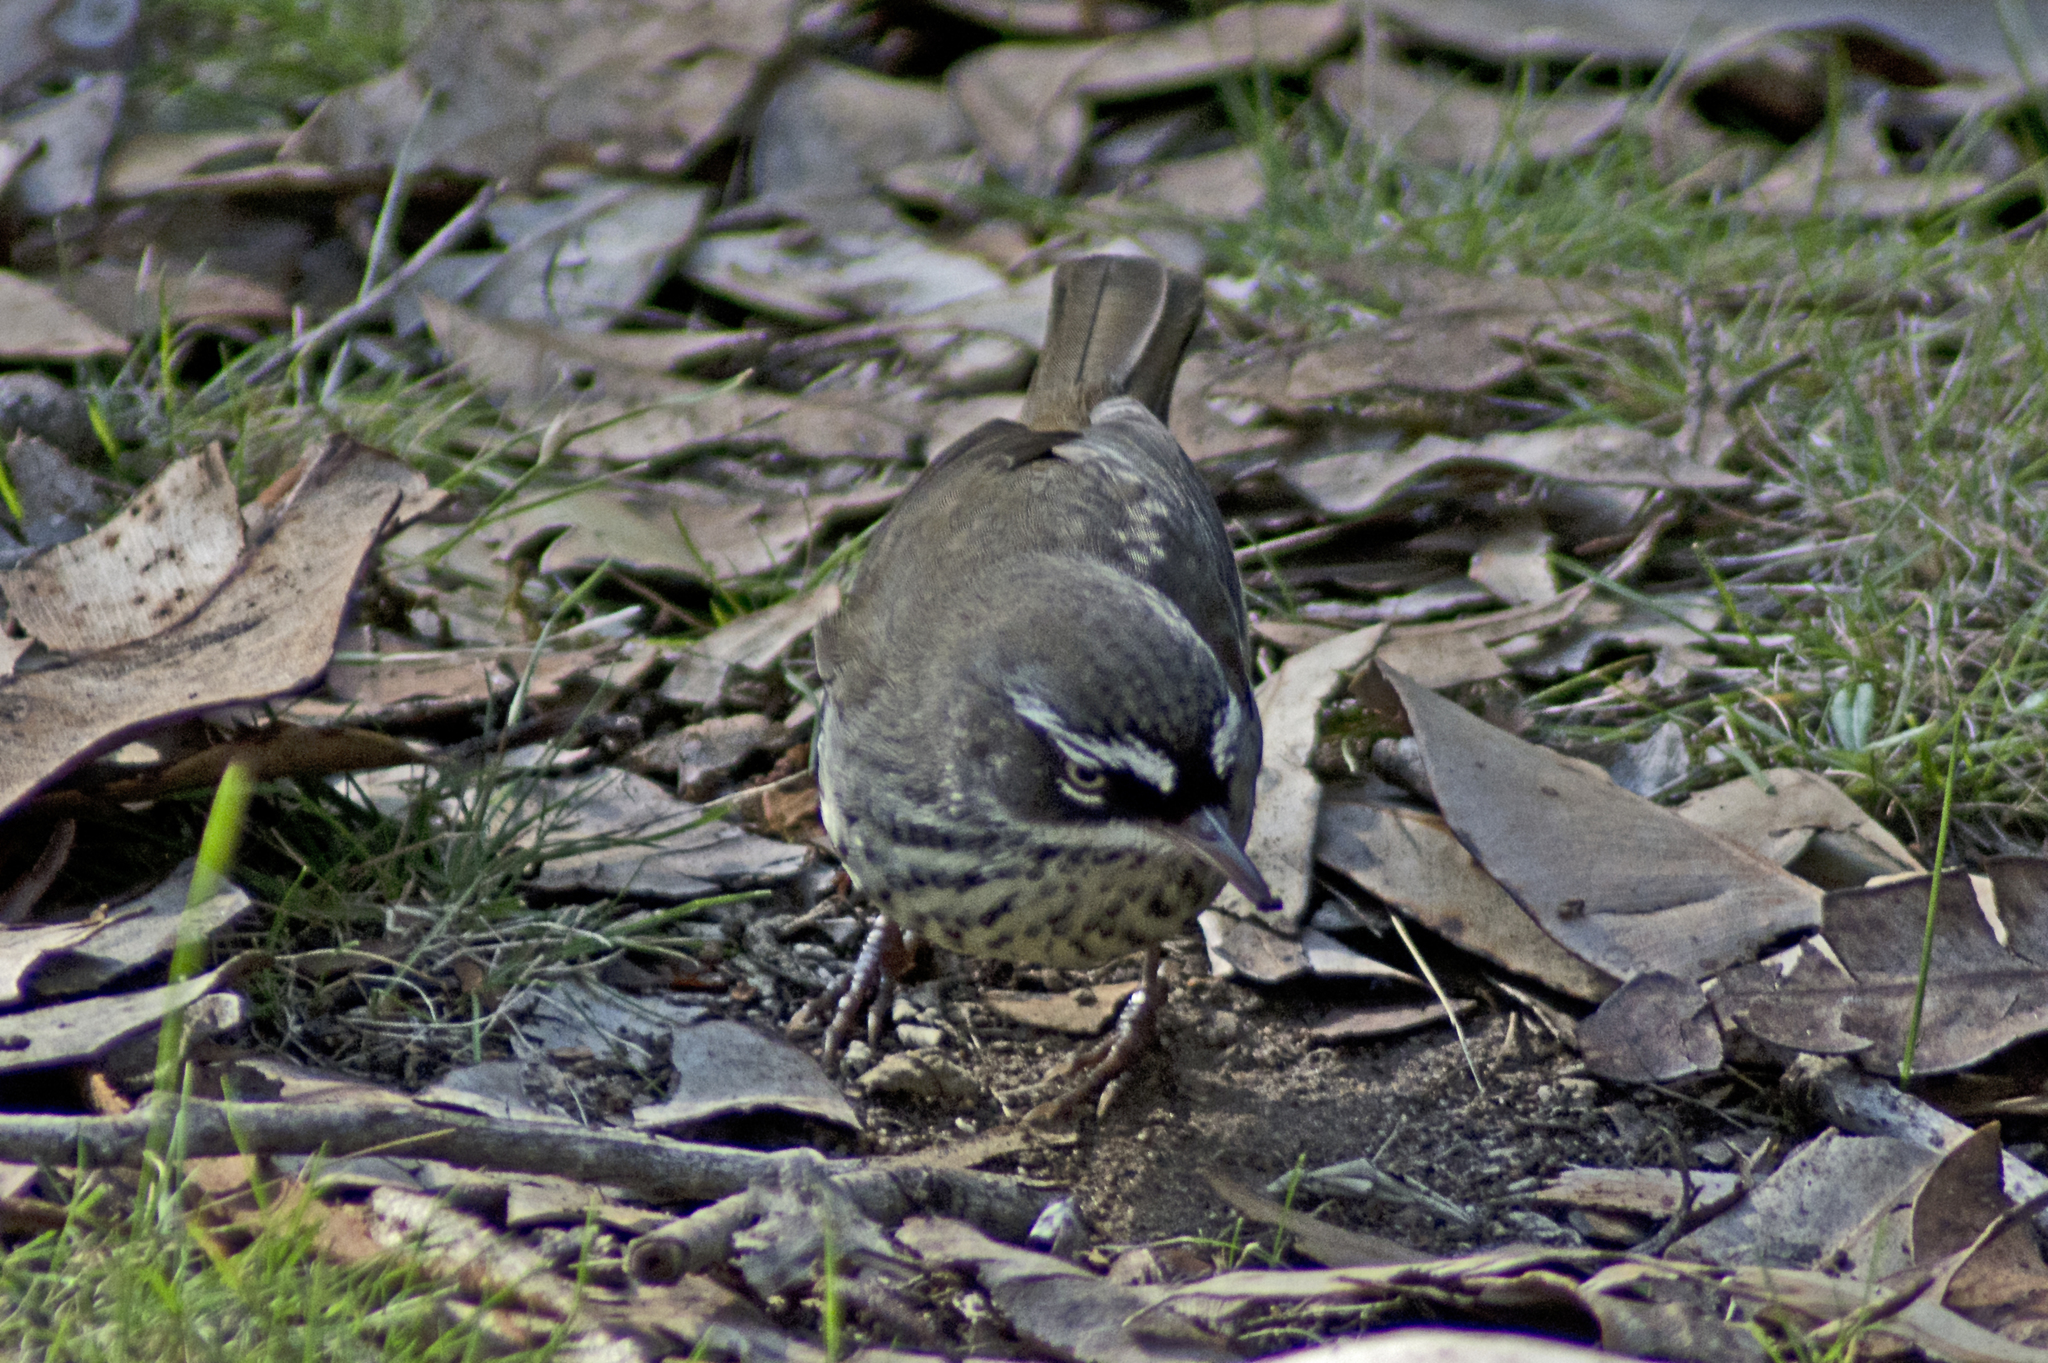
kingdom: Animalia
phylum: Chordata
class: Aves
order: Passeriformes
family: Acanthizidae
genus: Sericornis
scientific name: Sericornis maculatus
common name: Spotted scrubwren
